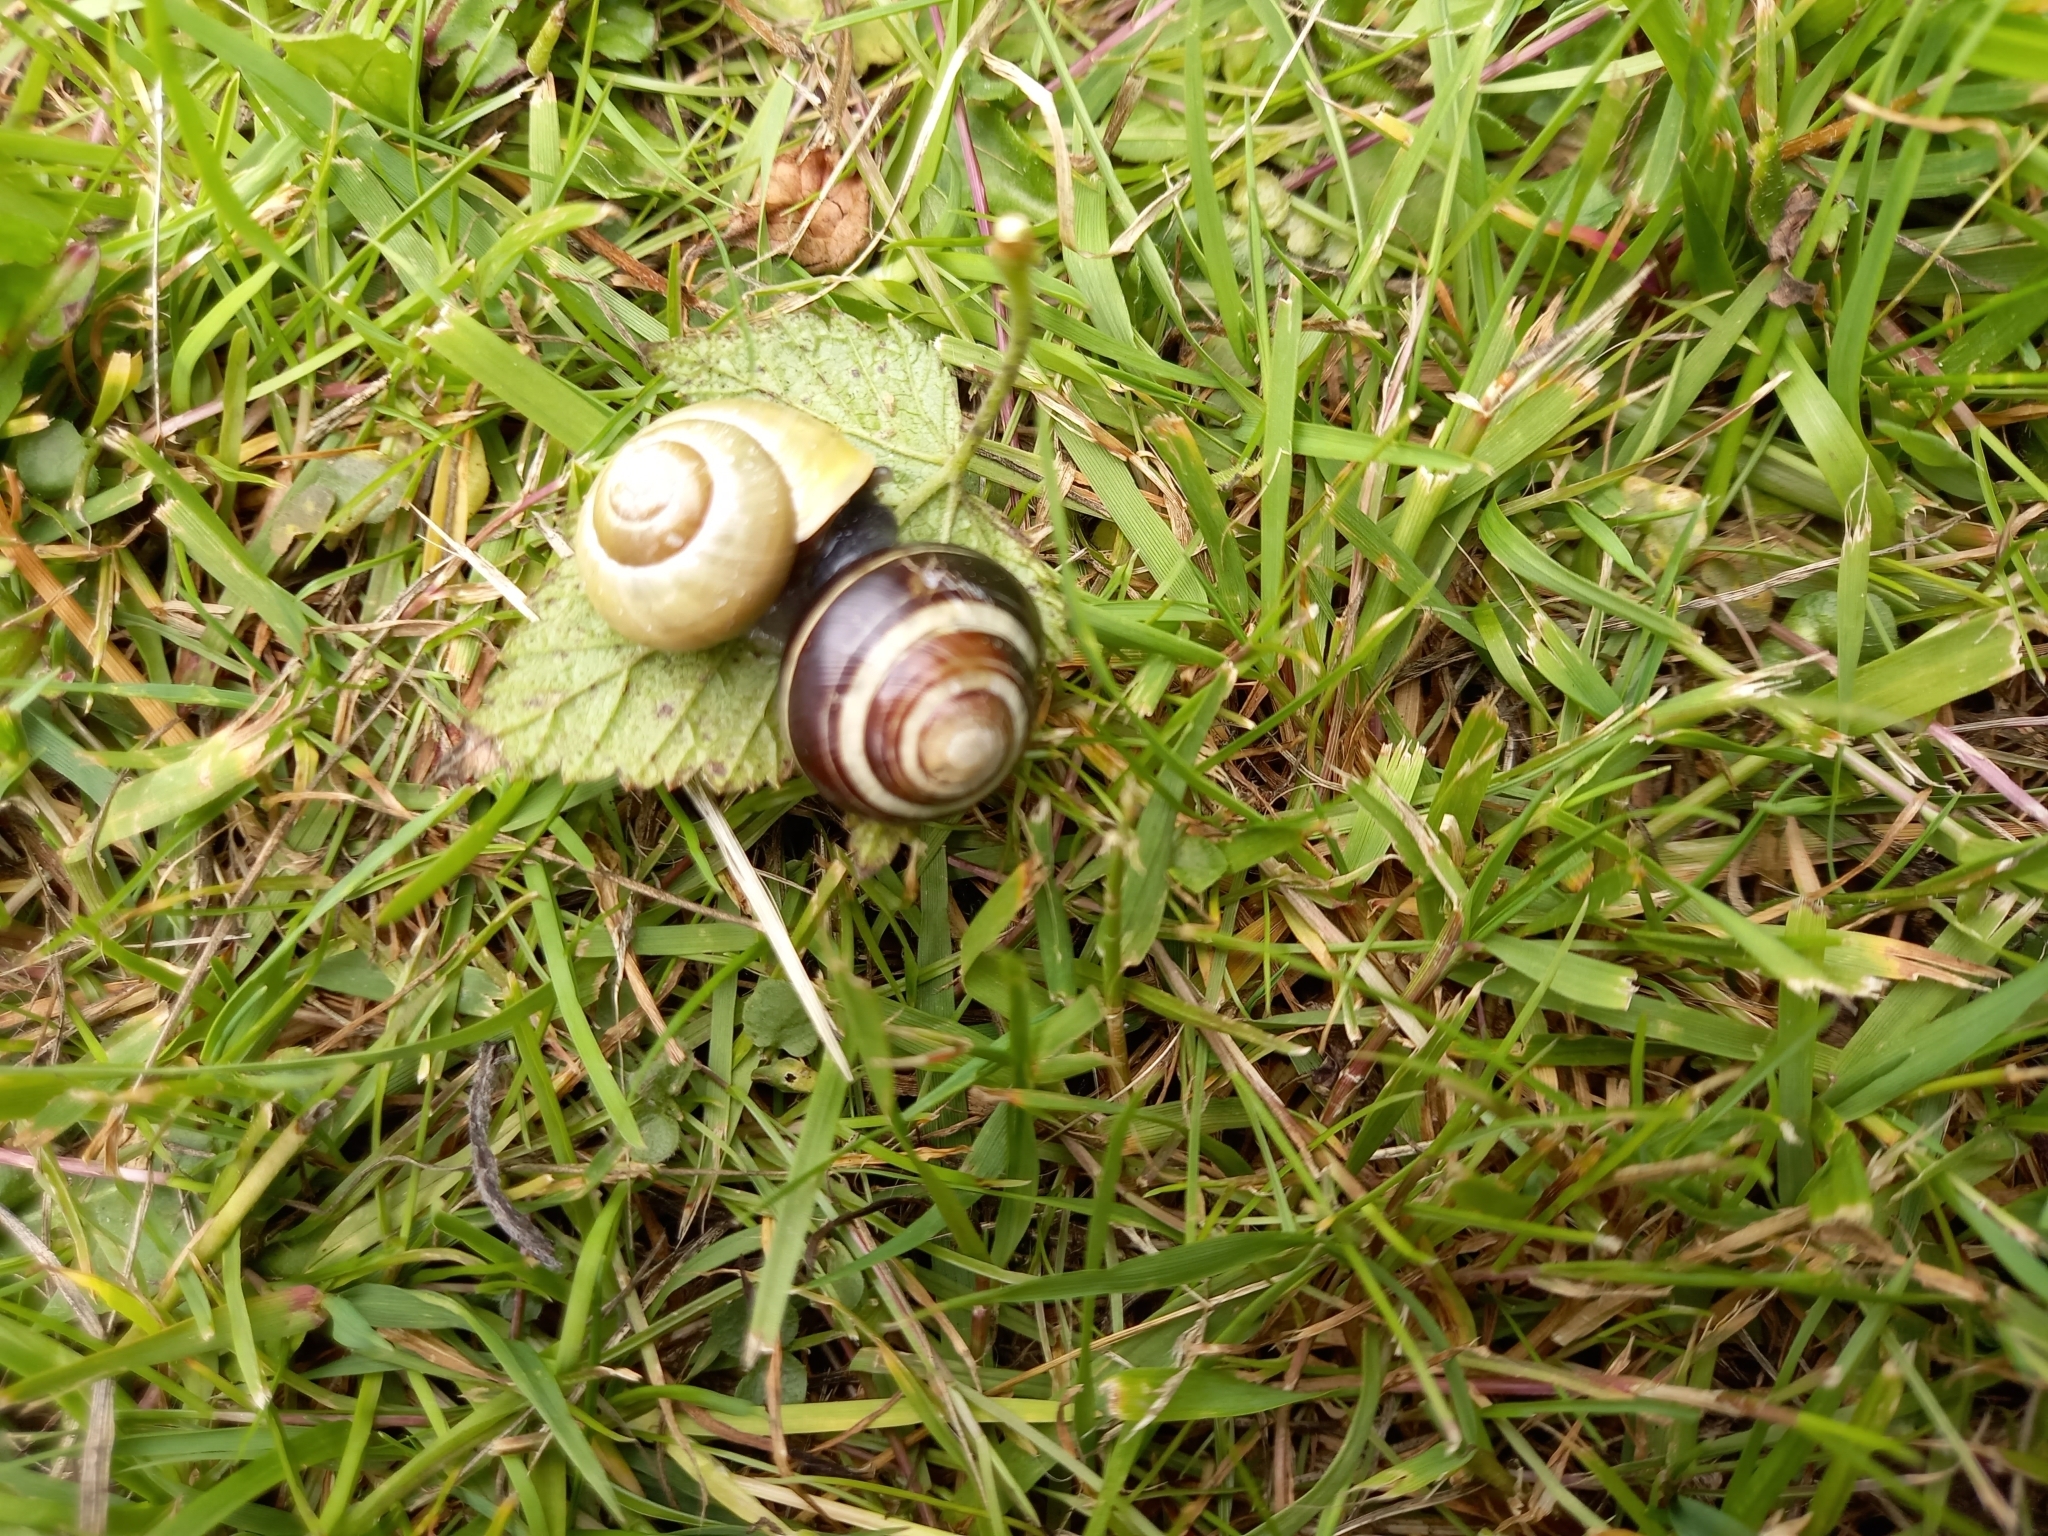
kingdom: Animalia
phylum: Mollusca
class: Gastropoda
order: Stylommatophora
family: Helicidae
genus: Cepaea
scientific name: Cepaea hortensis
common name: White-lip gardensnail
